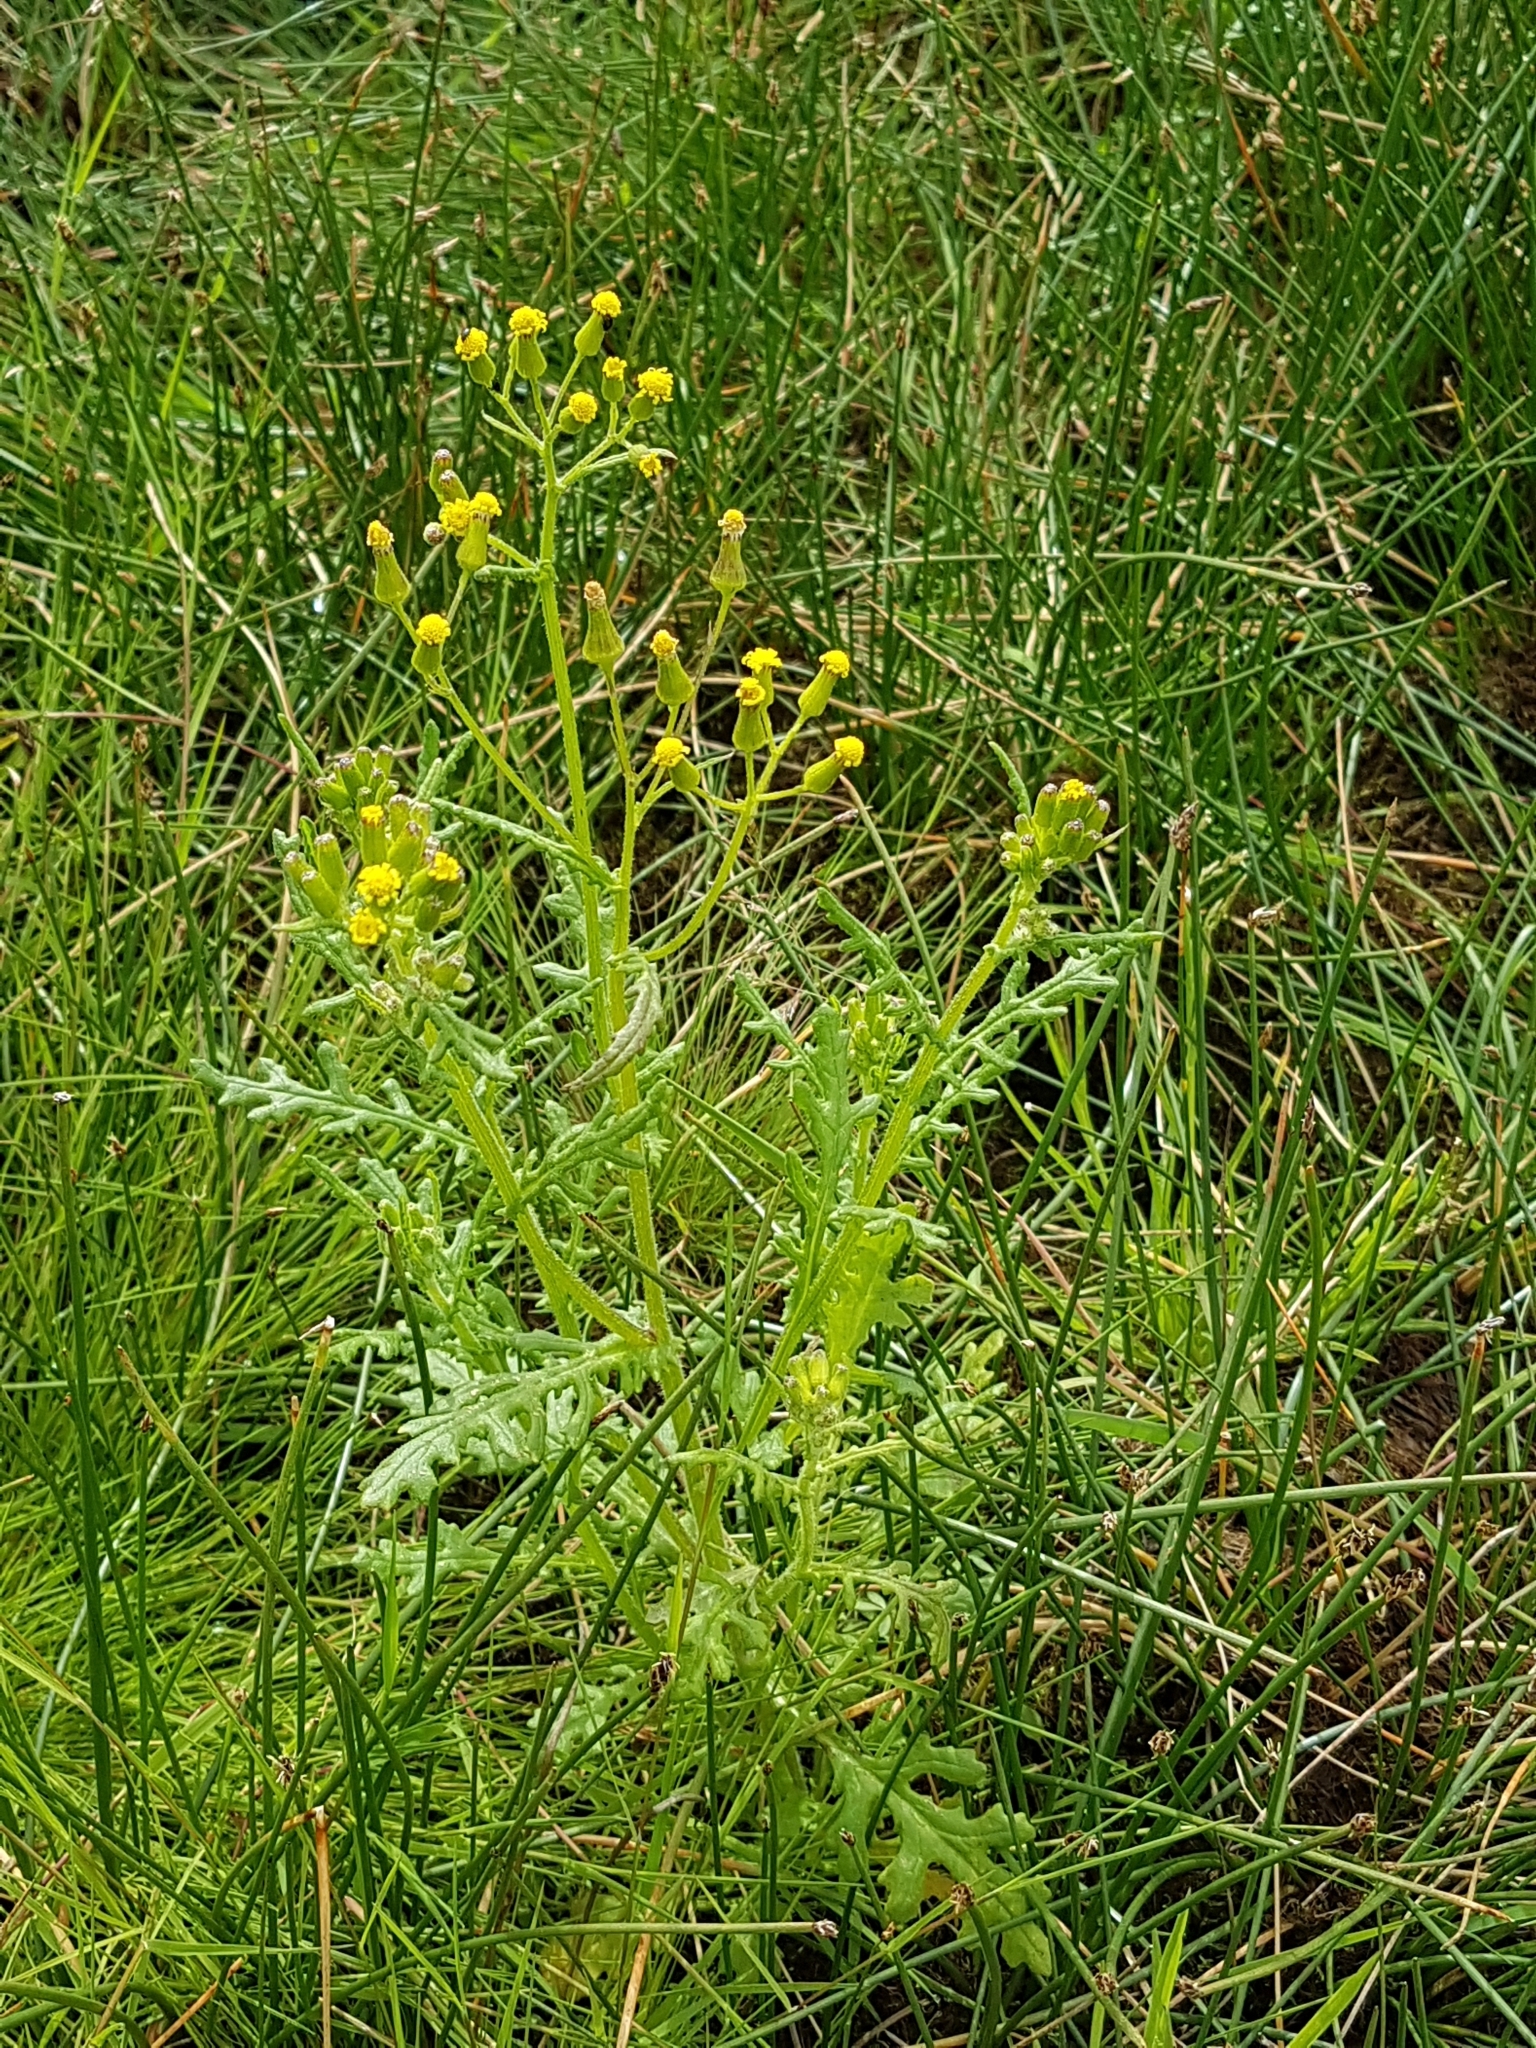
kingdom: Plantae
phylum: Tracheophyta
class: Magnoliopsida
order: Asterales
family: Asteraceae
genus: Senecio
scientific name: Senecio sylvaticus
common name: Woodland ragwort
